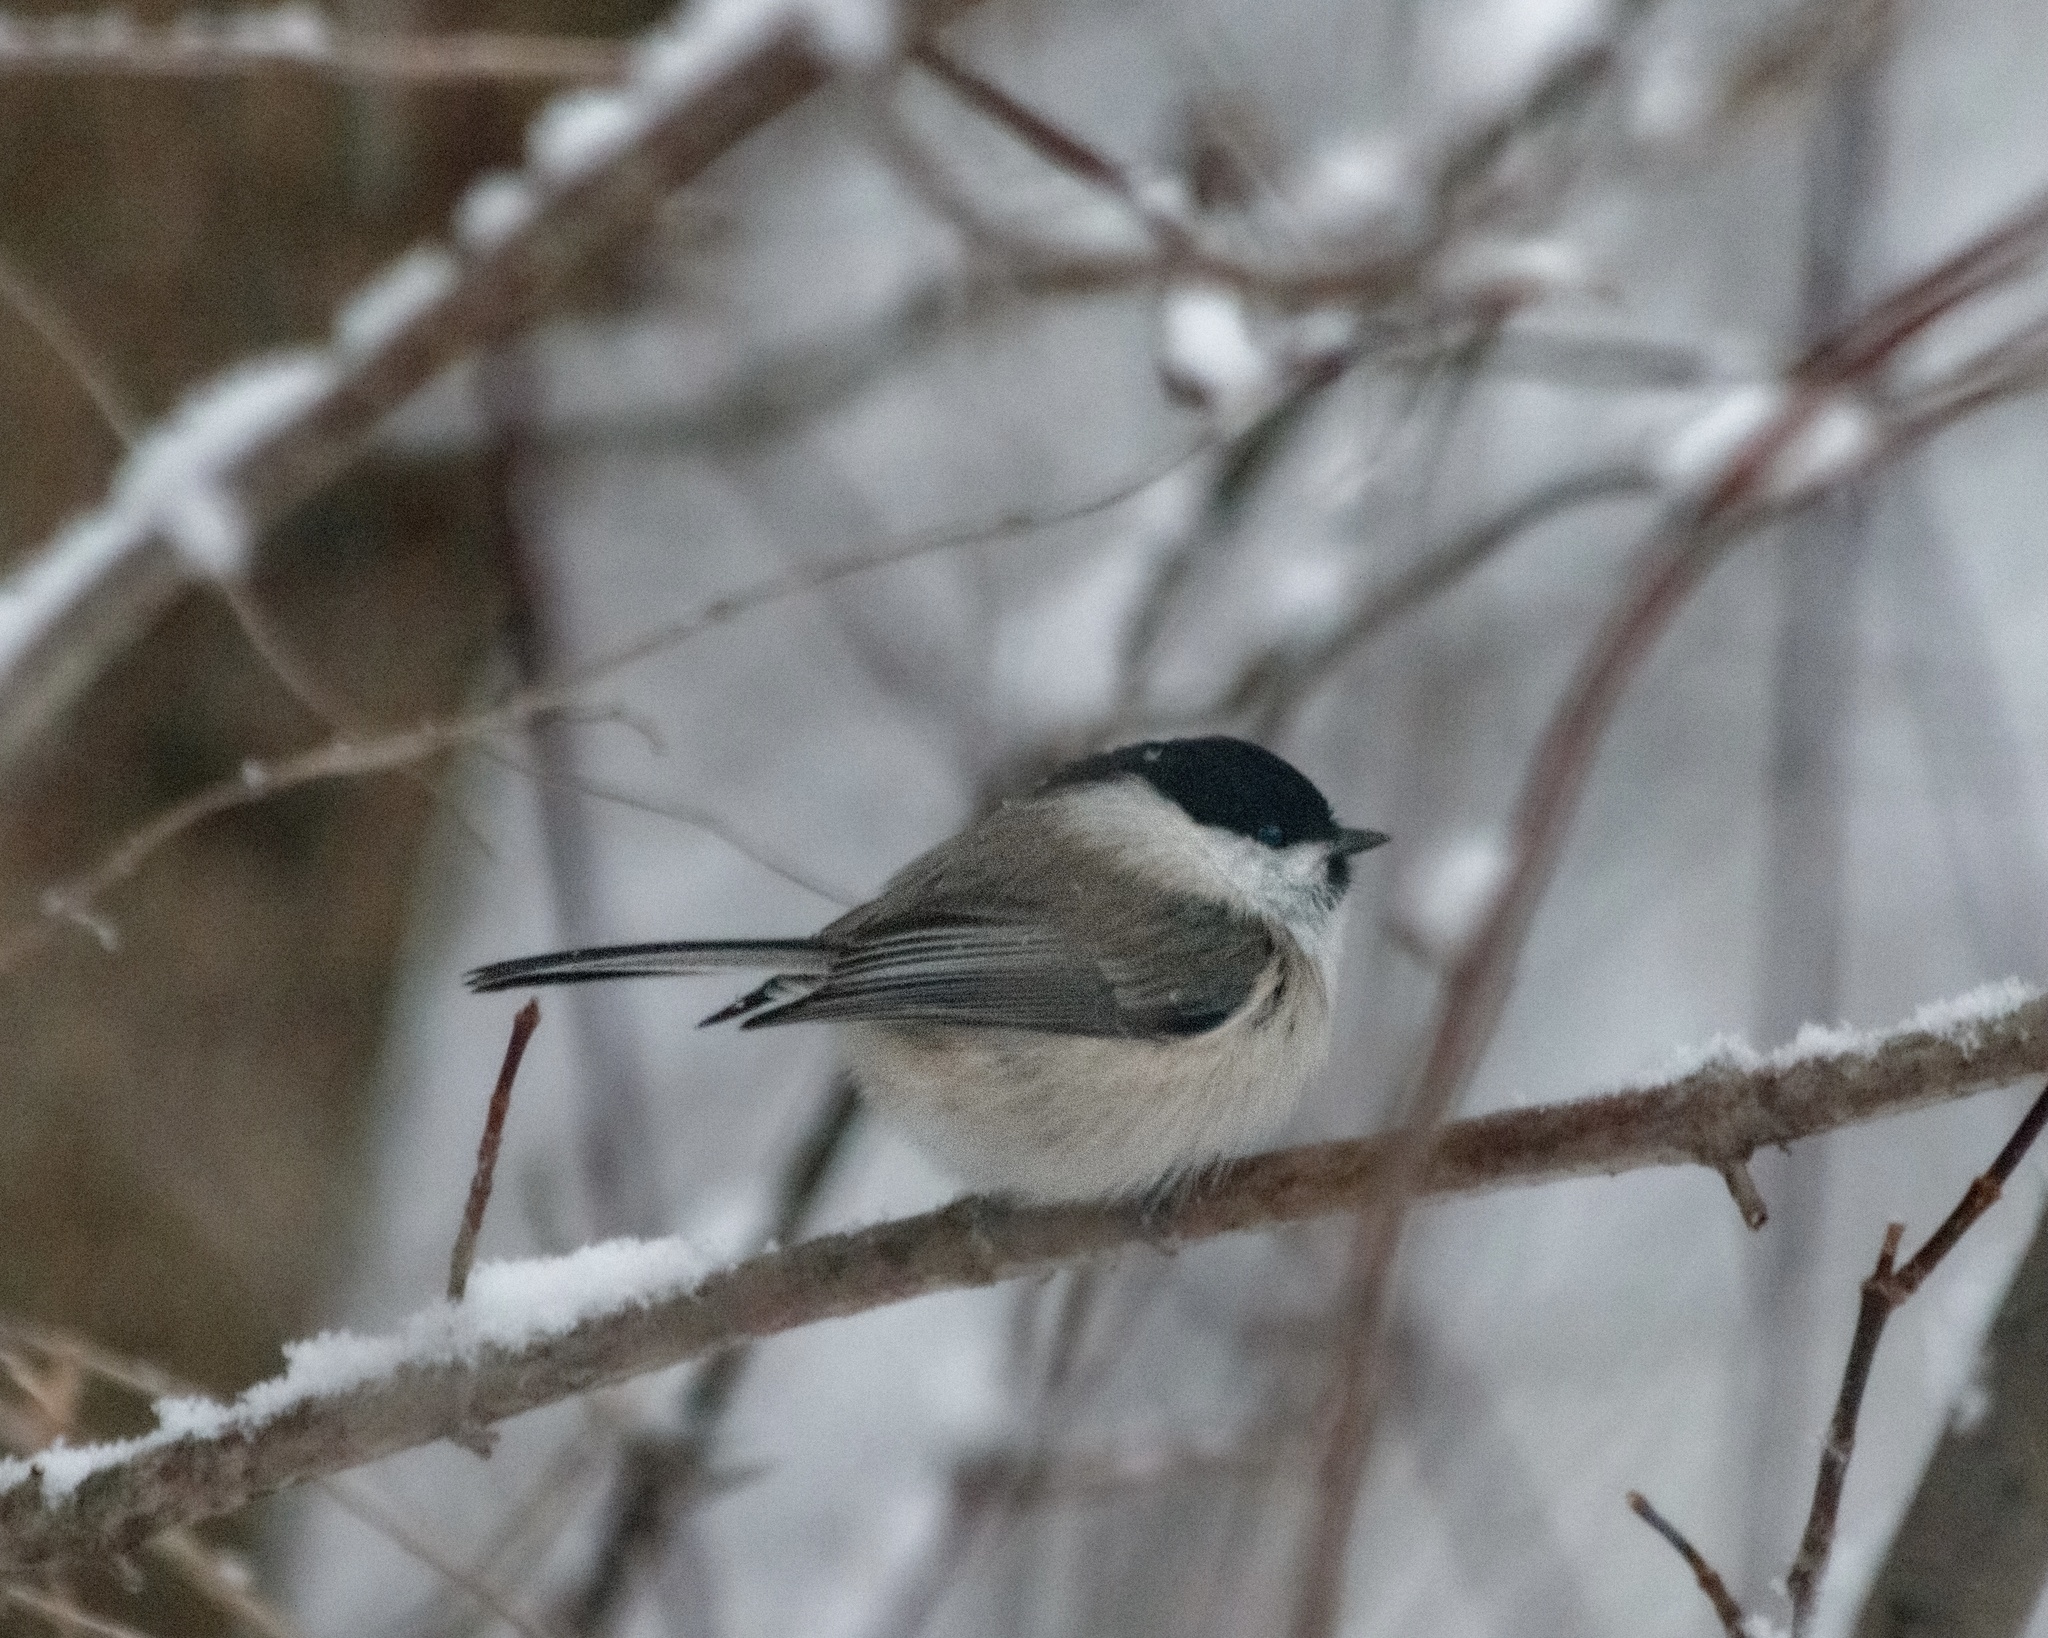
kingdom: Animalia
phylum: Chordata
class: Aves
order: Passeriformes
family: Paridae
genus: Poecile
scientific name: Poecile montanus
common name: Willow tit
